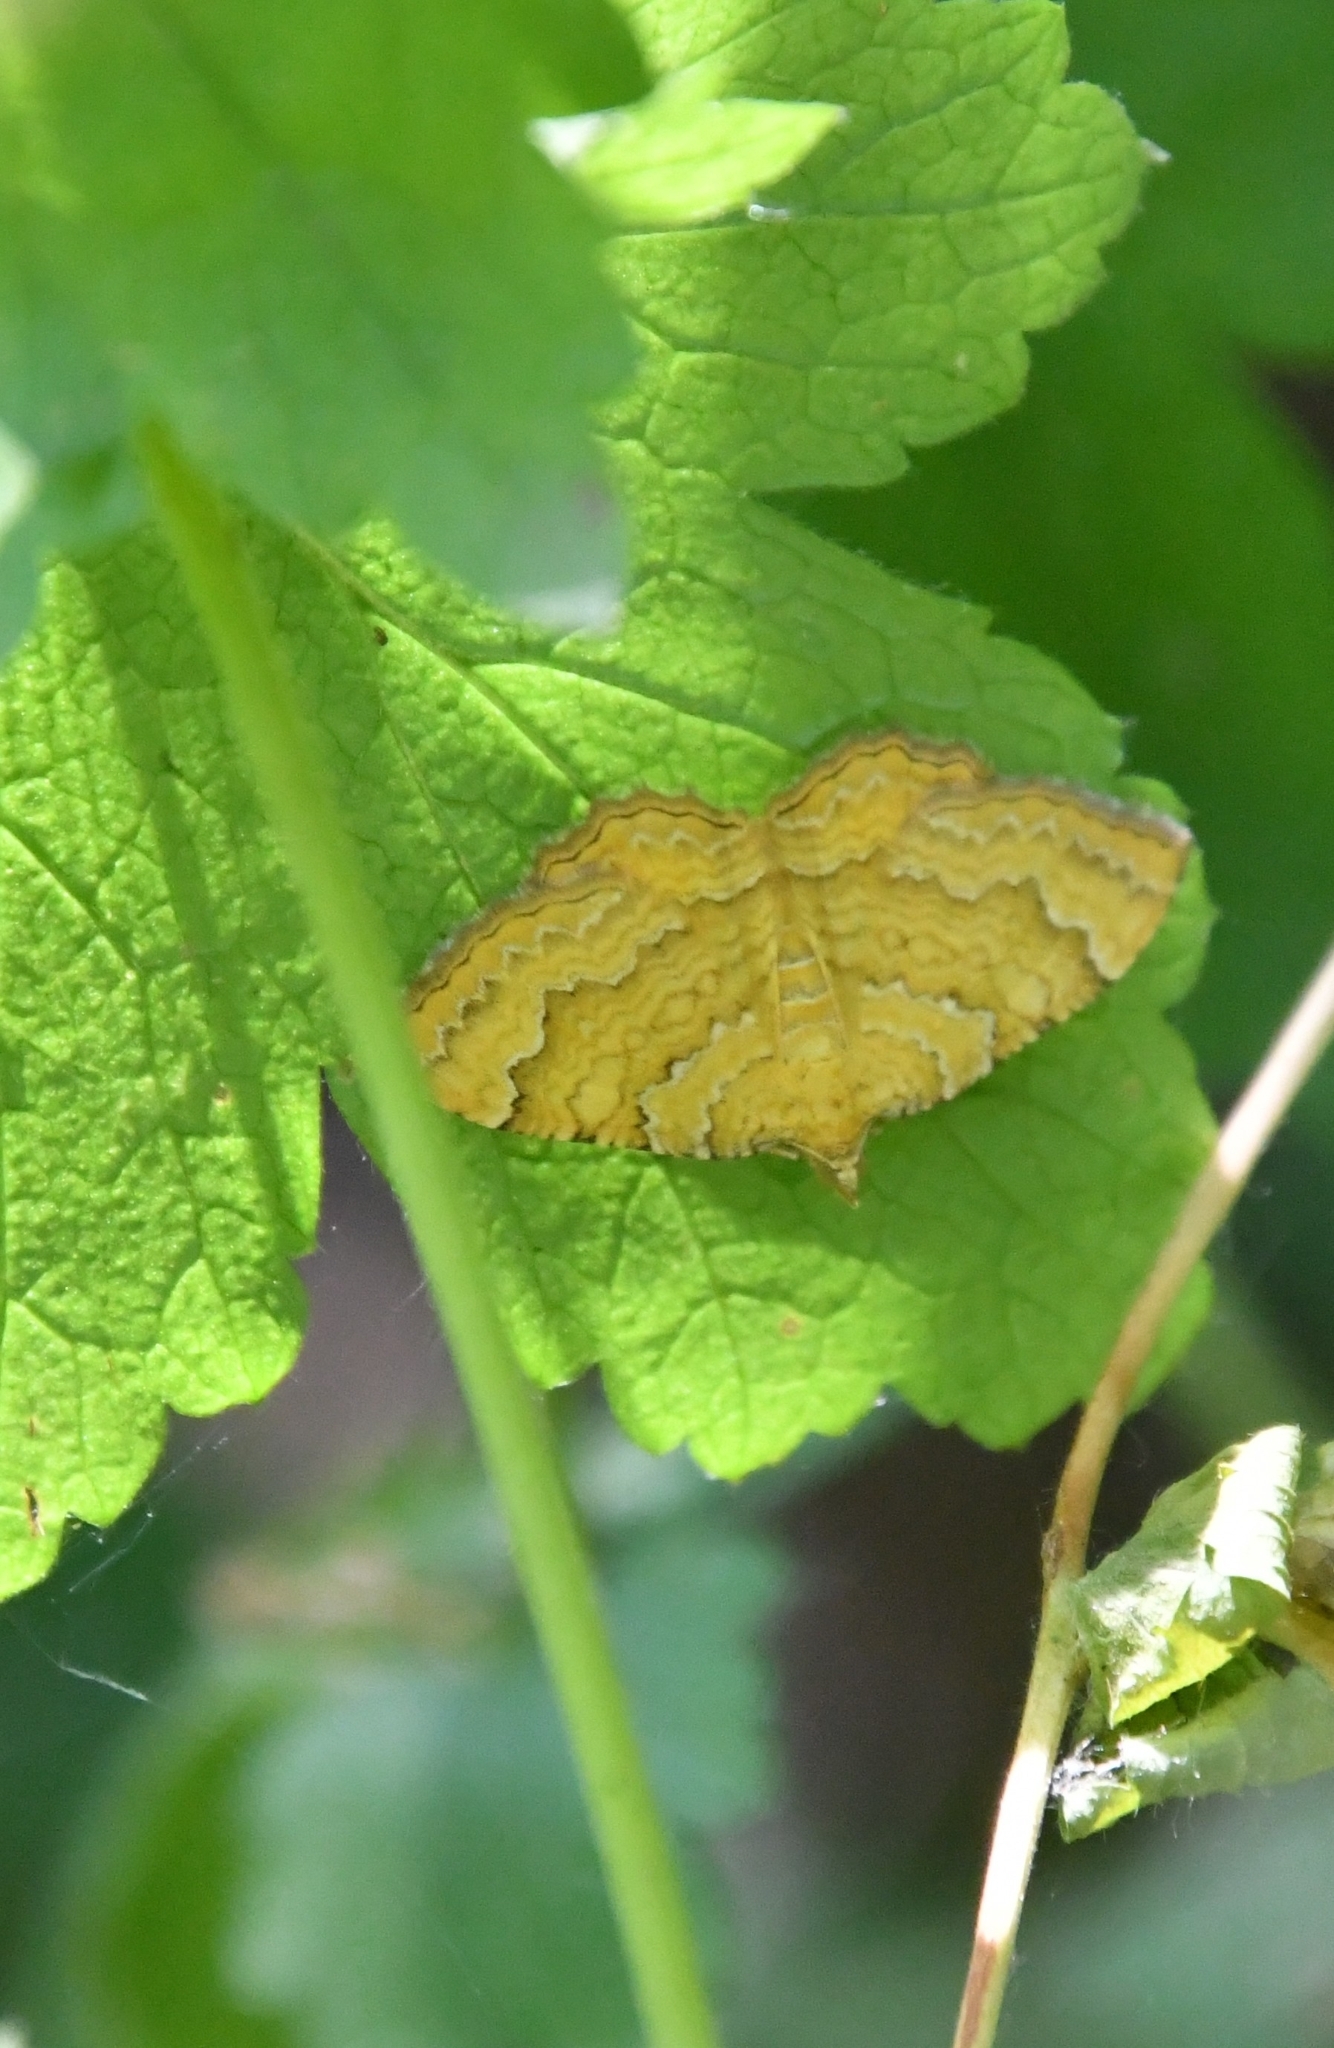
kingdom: Animalia
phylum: Arthropoda
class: Insecta
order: Lepidoptera
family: Geometridae
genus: Camptogramma
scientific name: Camptogramma bilineata
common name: Yellow shell
